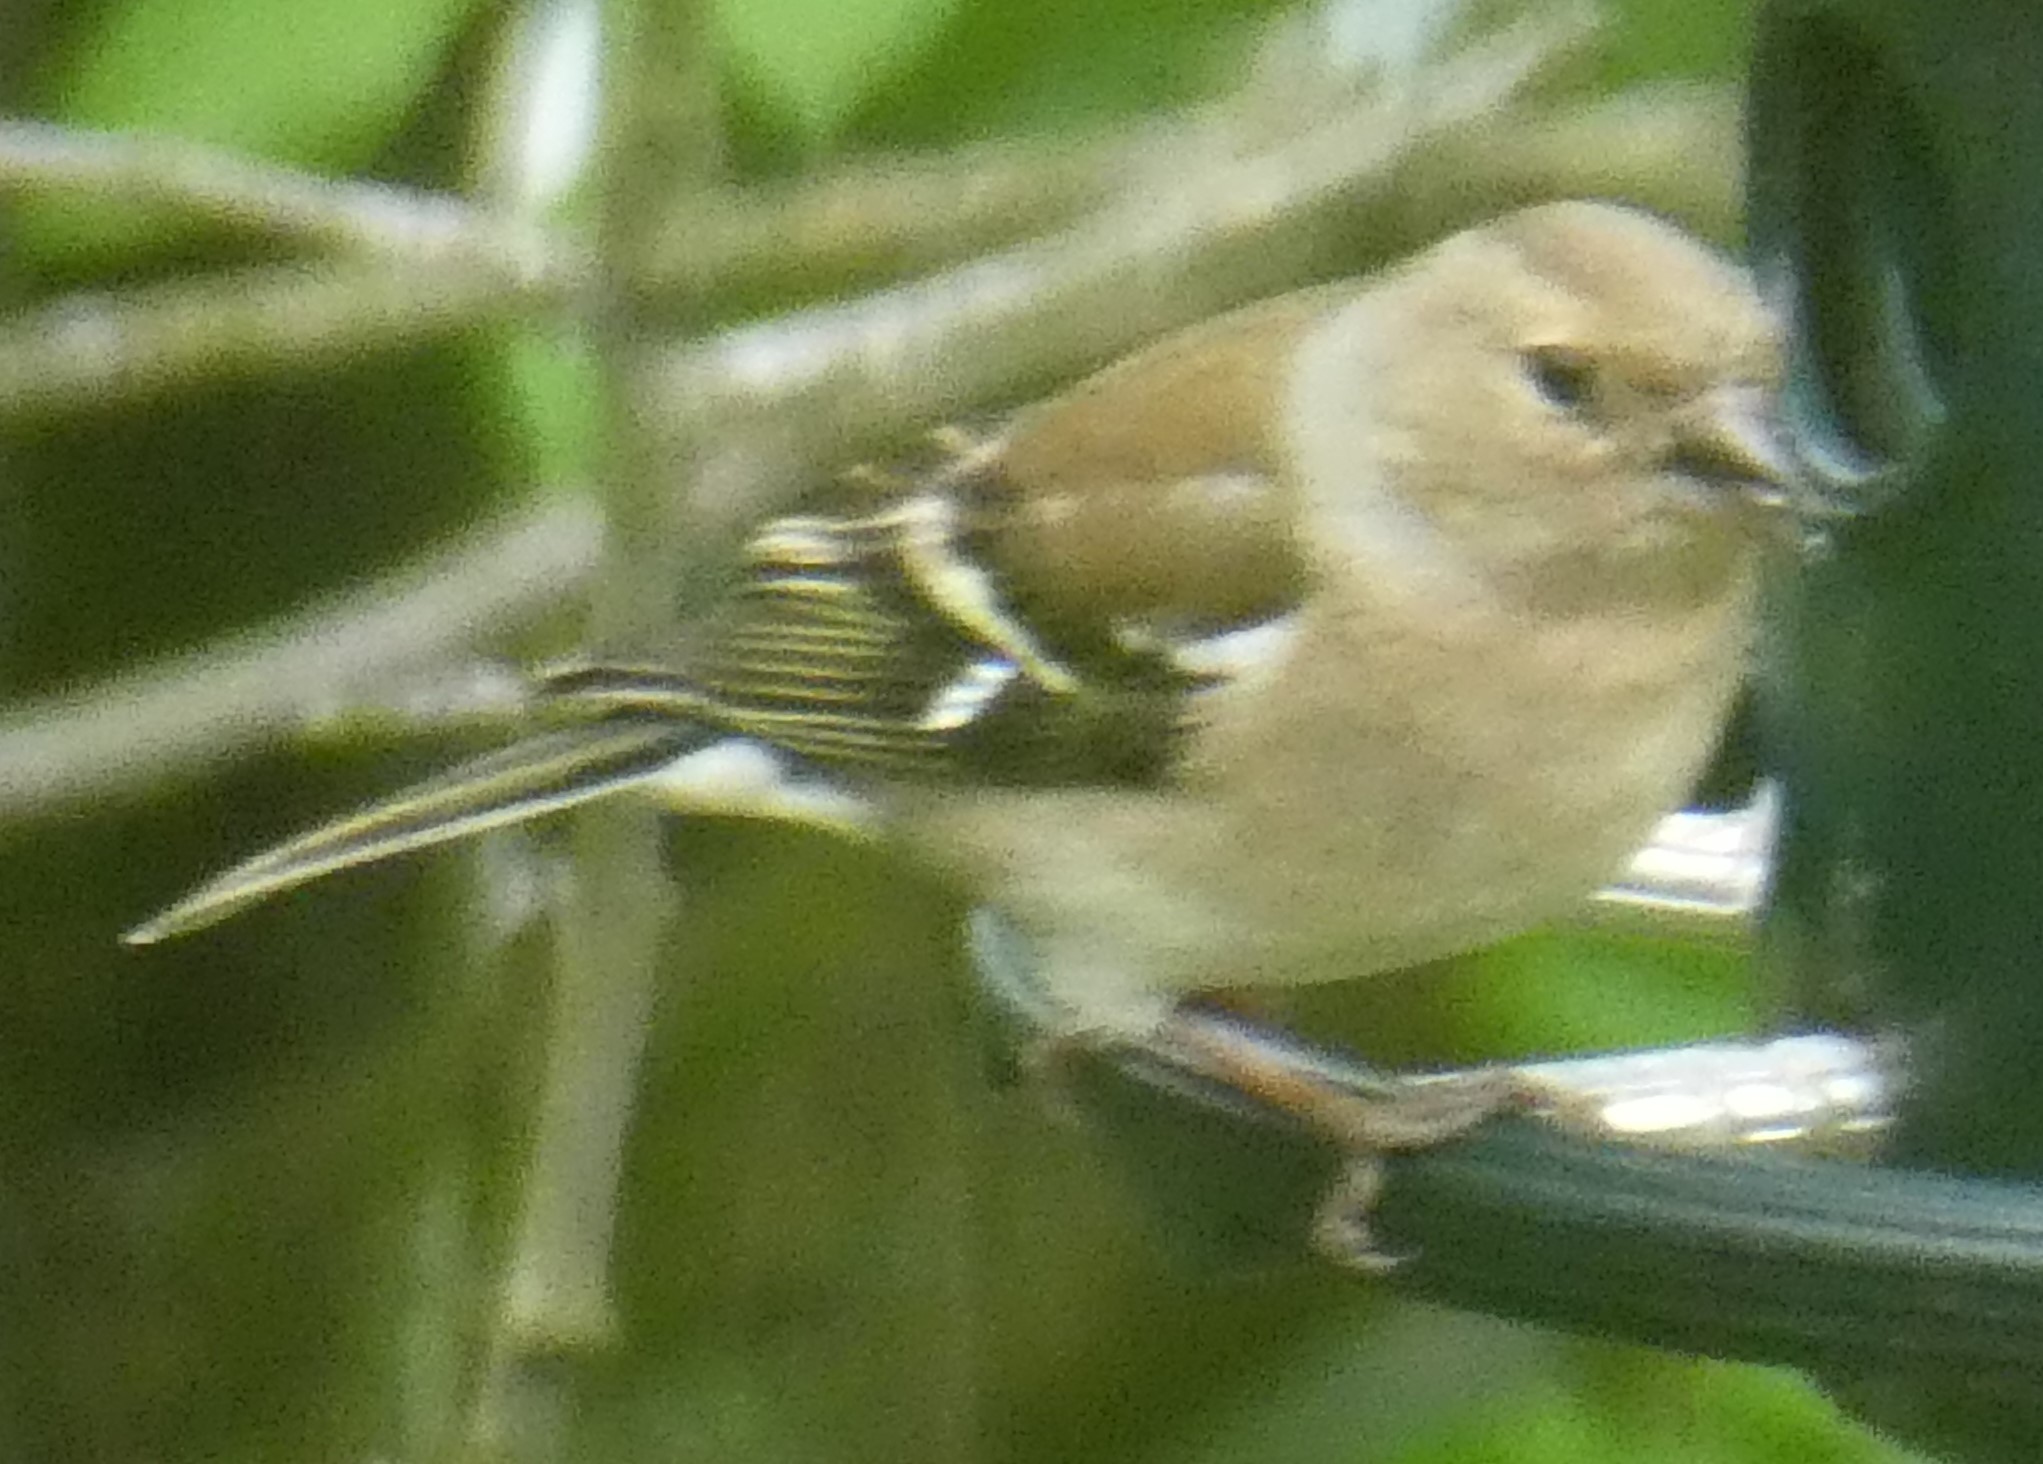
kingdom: Animalia
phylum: Chordata
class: Aves
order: Passeriformes
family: Fringillidae
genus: Fringilla
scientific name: Fringilla coelebs
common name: Common chaffinch
